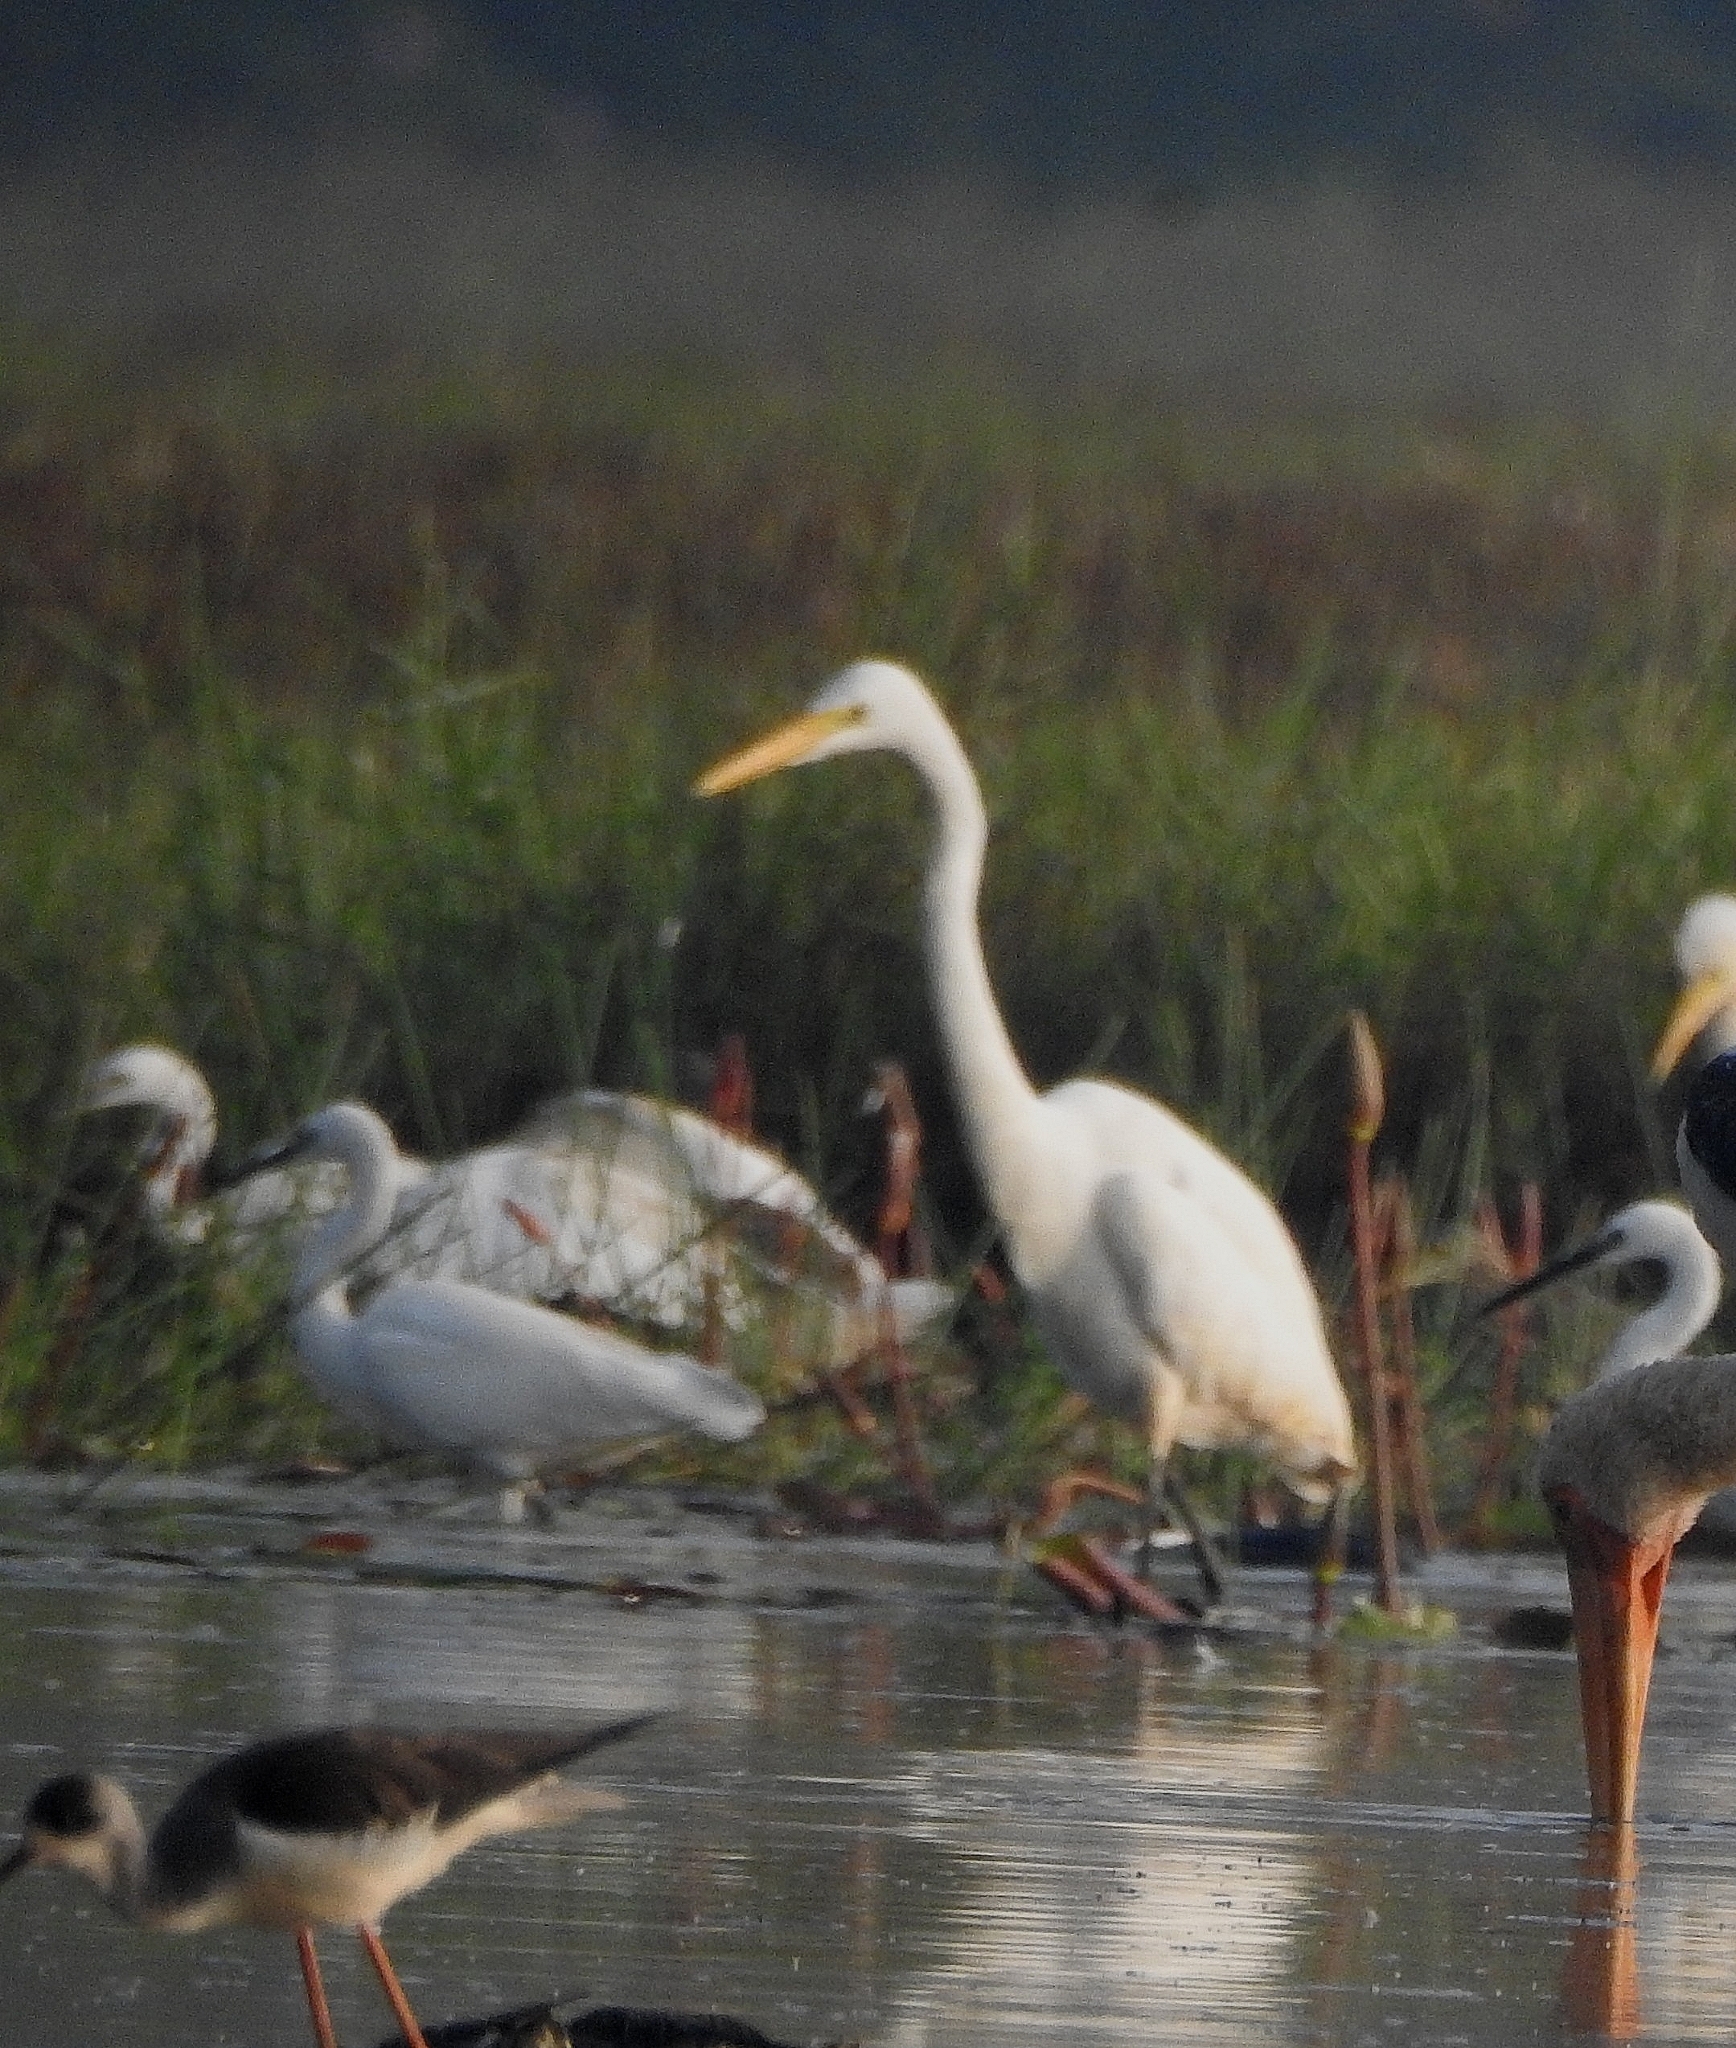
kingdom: Animalia
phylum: Chordata
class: Aves
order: Pelecaniformes
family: Ardeidae
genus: Ardea
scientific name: Ardea alba
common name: Great egret
